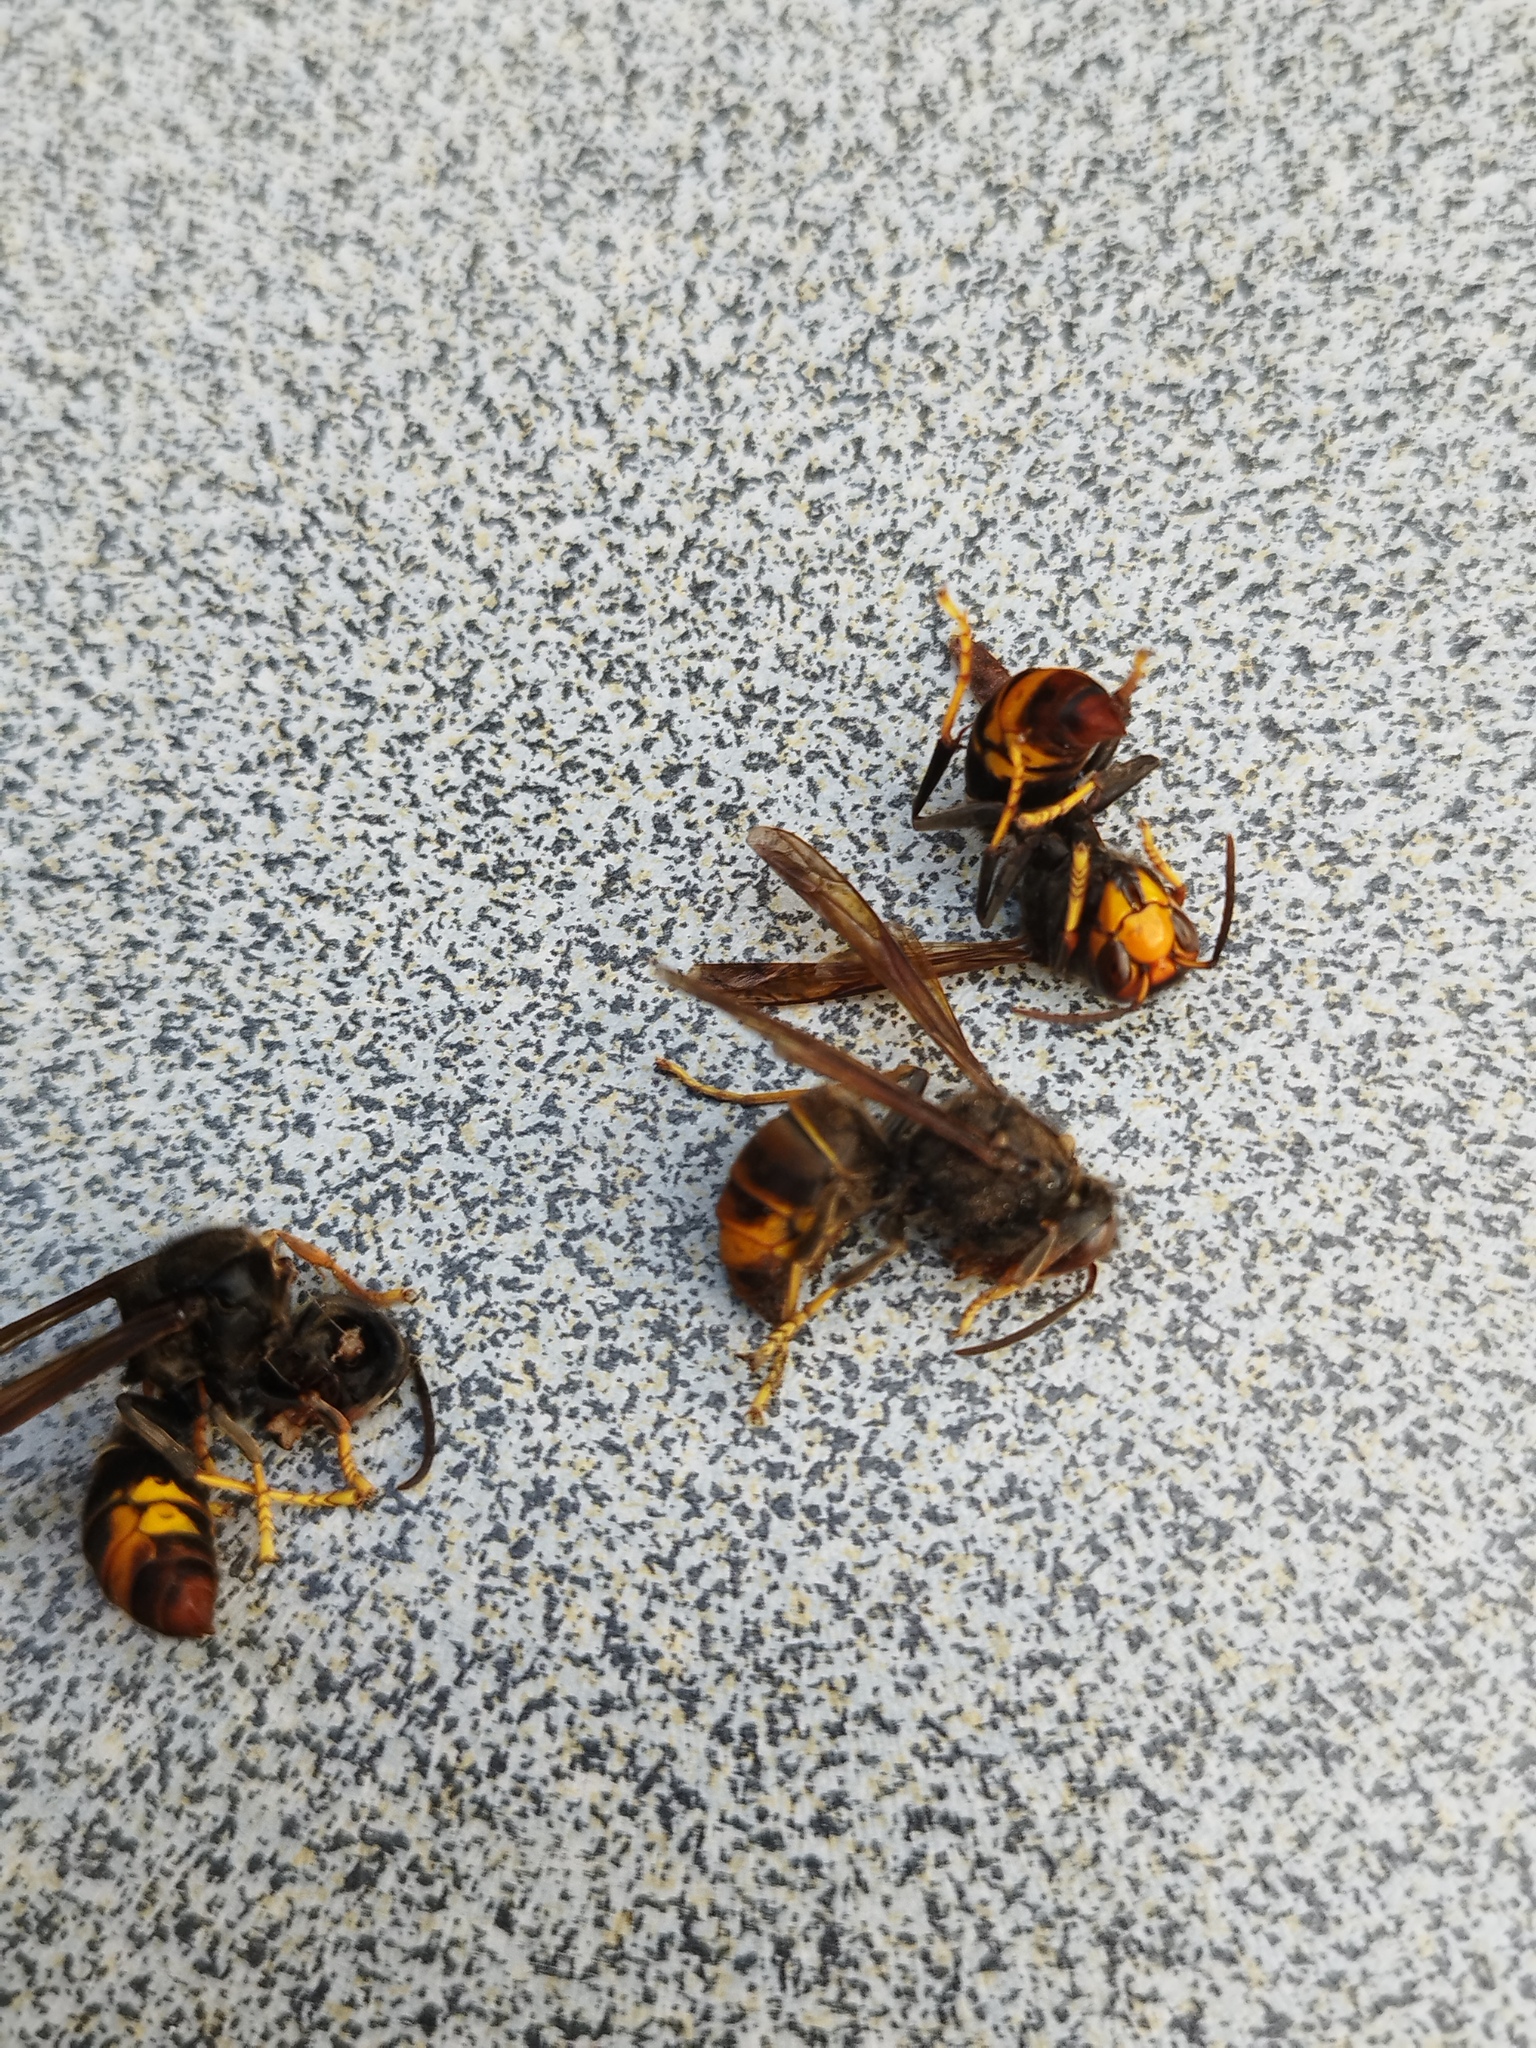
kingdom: Animalia
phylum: Arthropoda
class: Insecta
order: Hymenoptera
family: Vespidae
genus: Vespa
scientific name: Vespa velutina
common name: Asian hornet
